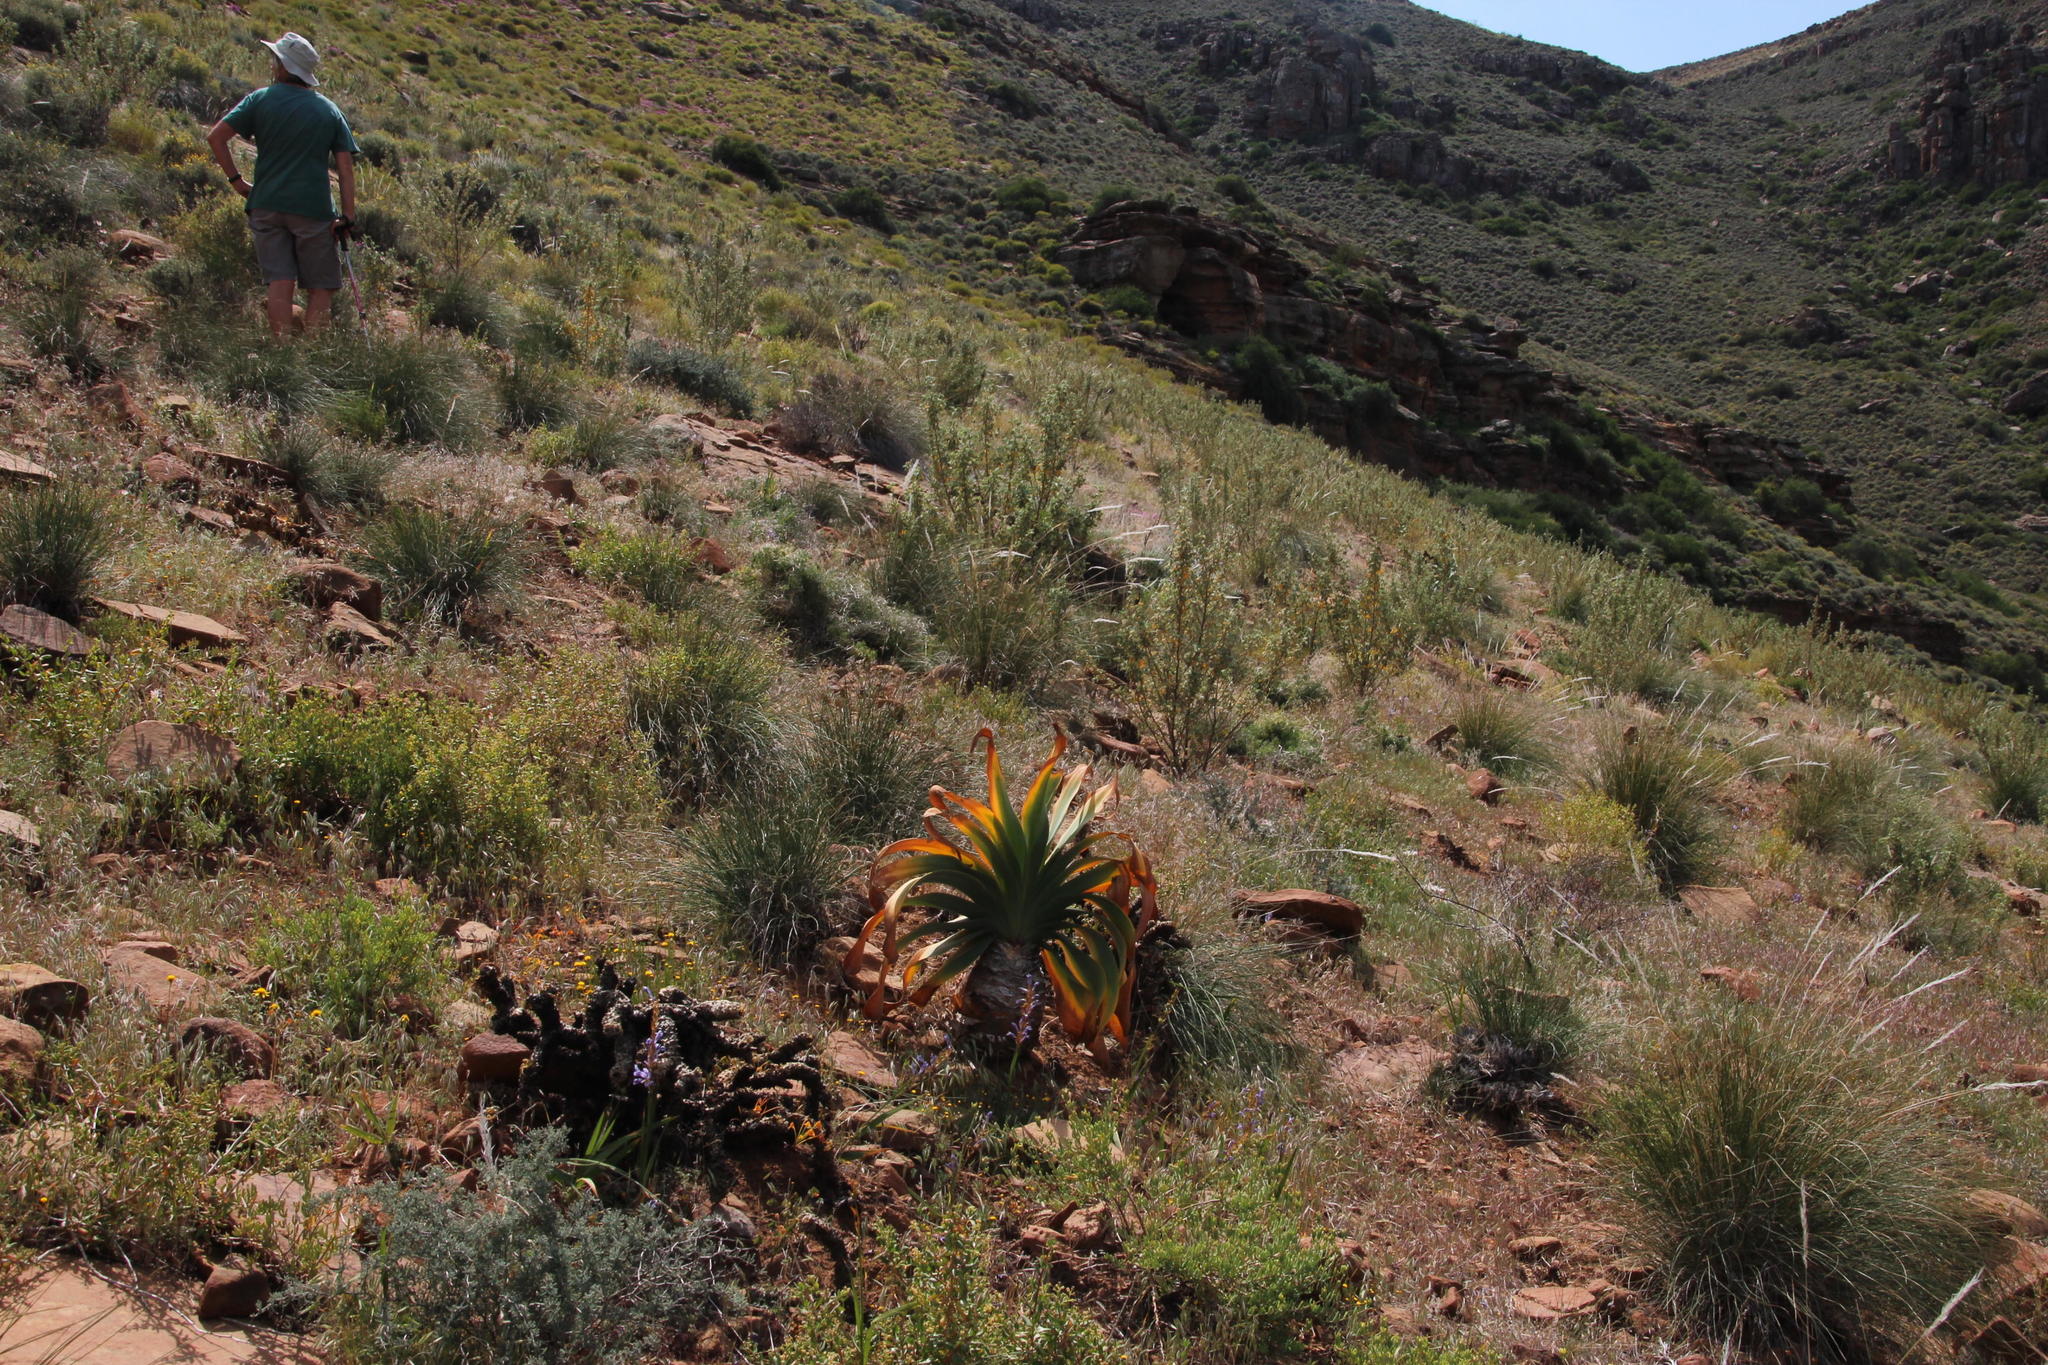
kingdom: Plantae
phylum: Tracheophyta
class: Liliopsida
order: Asparagales
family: Amaryllidaceae
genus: Boophone
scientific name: Boophone disticha
